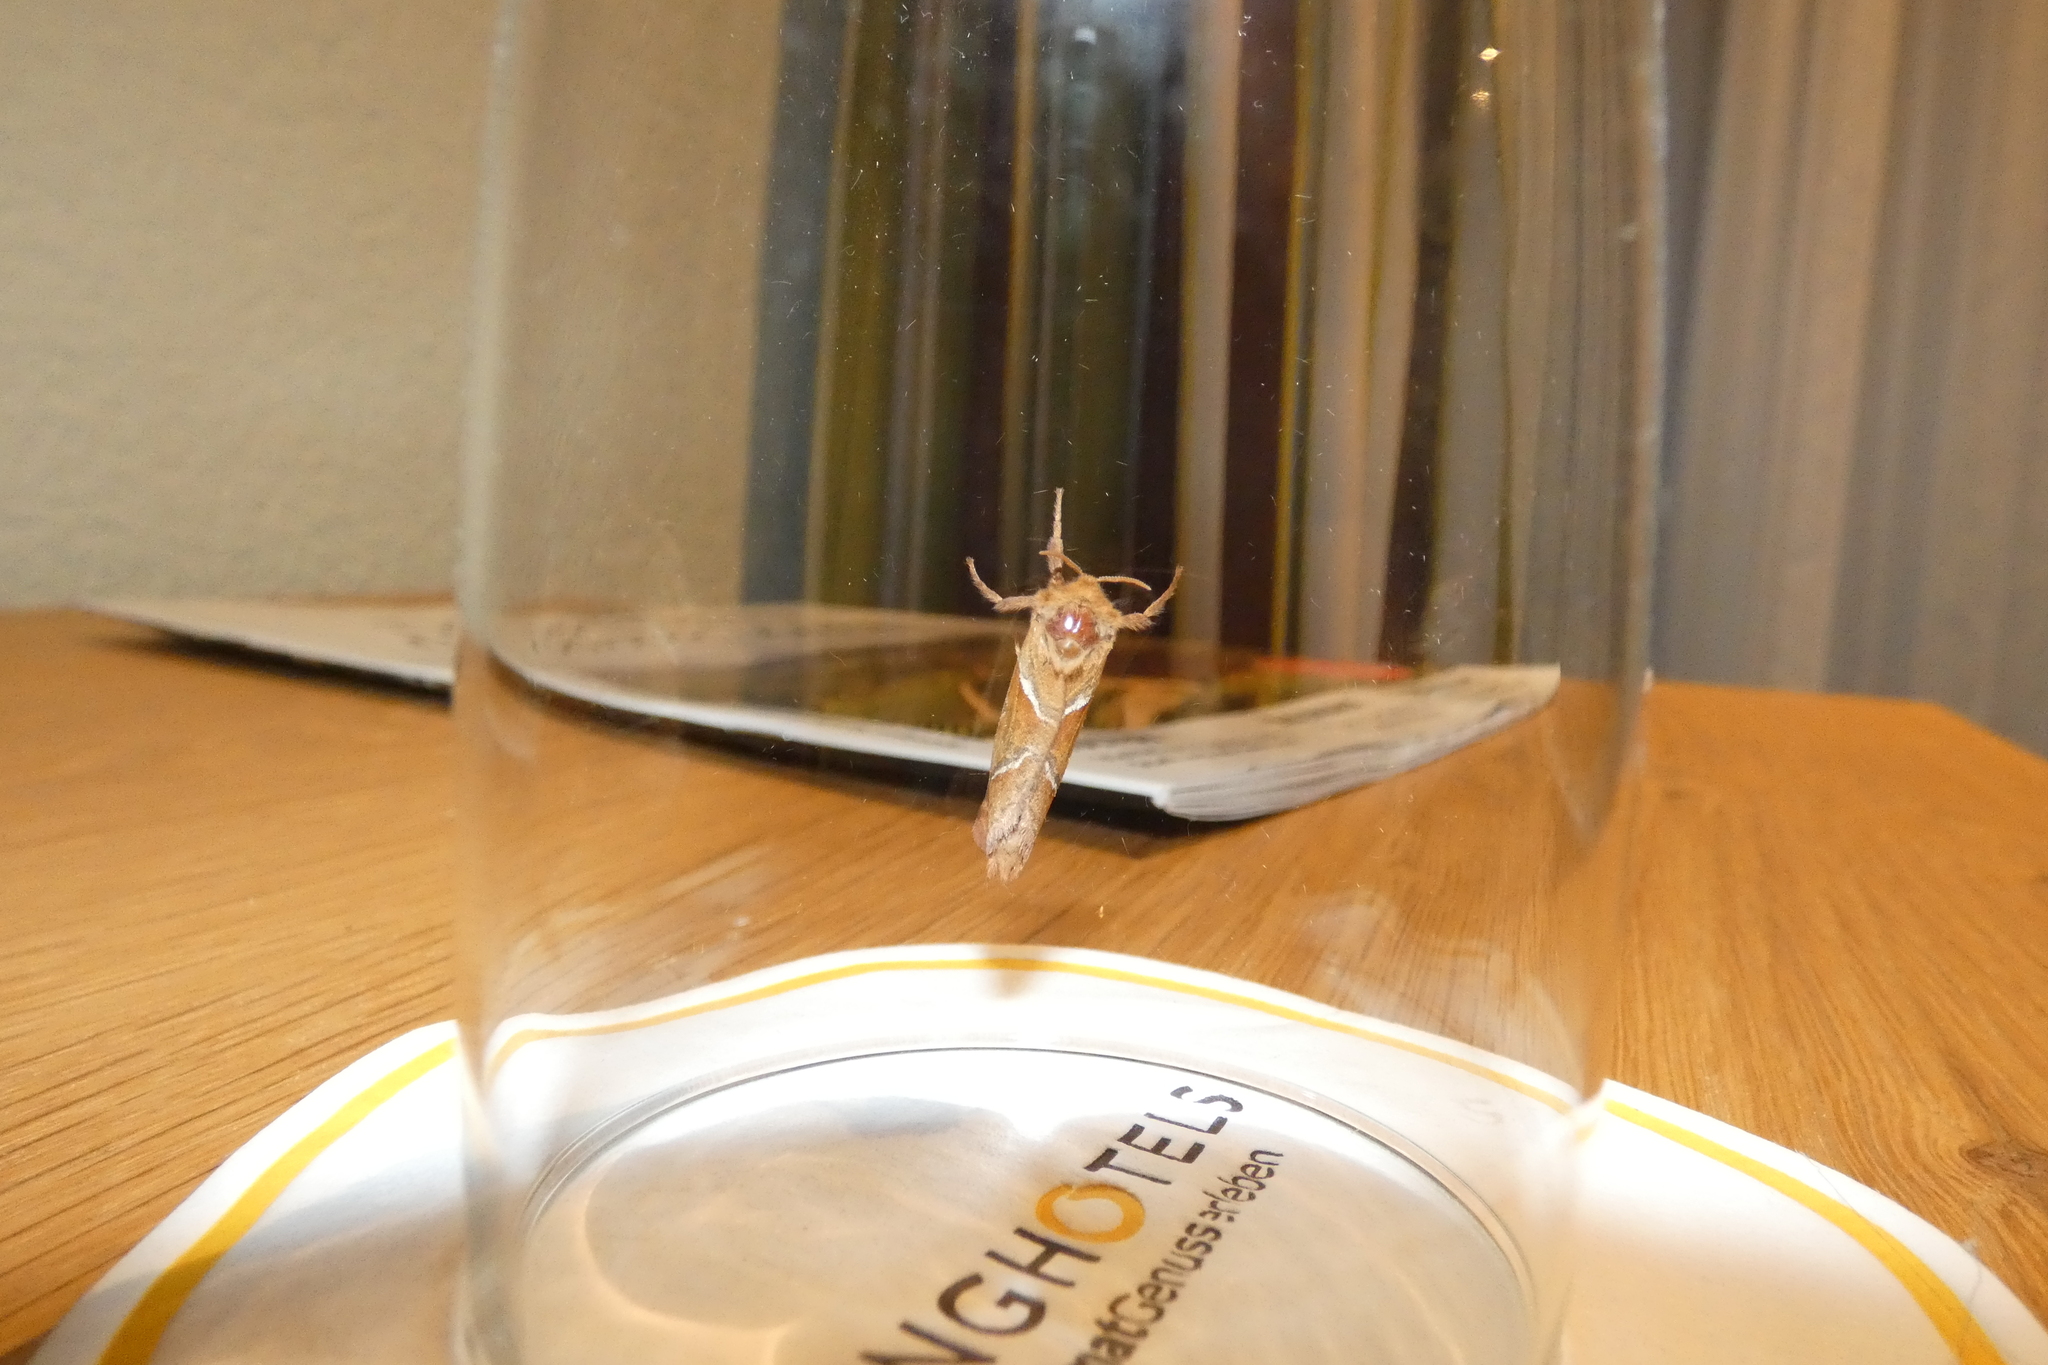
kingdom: Animalia
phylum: Arthropoda
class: Insecta
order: Lepidoptera
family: Hepialidae
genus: Triodia
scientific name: Triodia sylvina
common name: Orange swift
